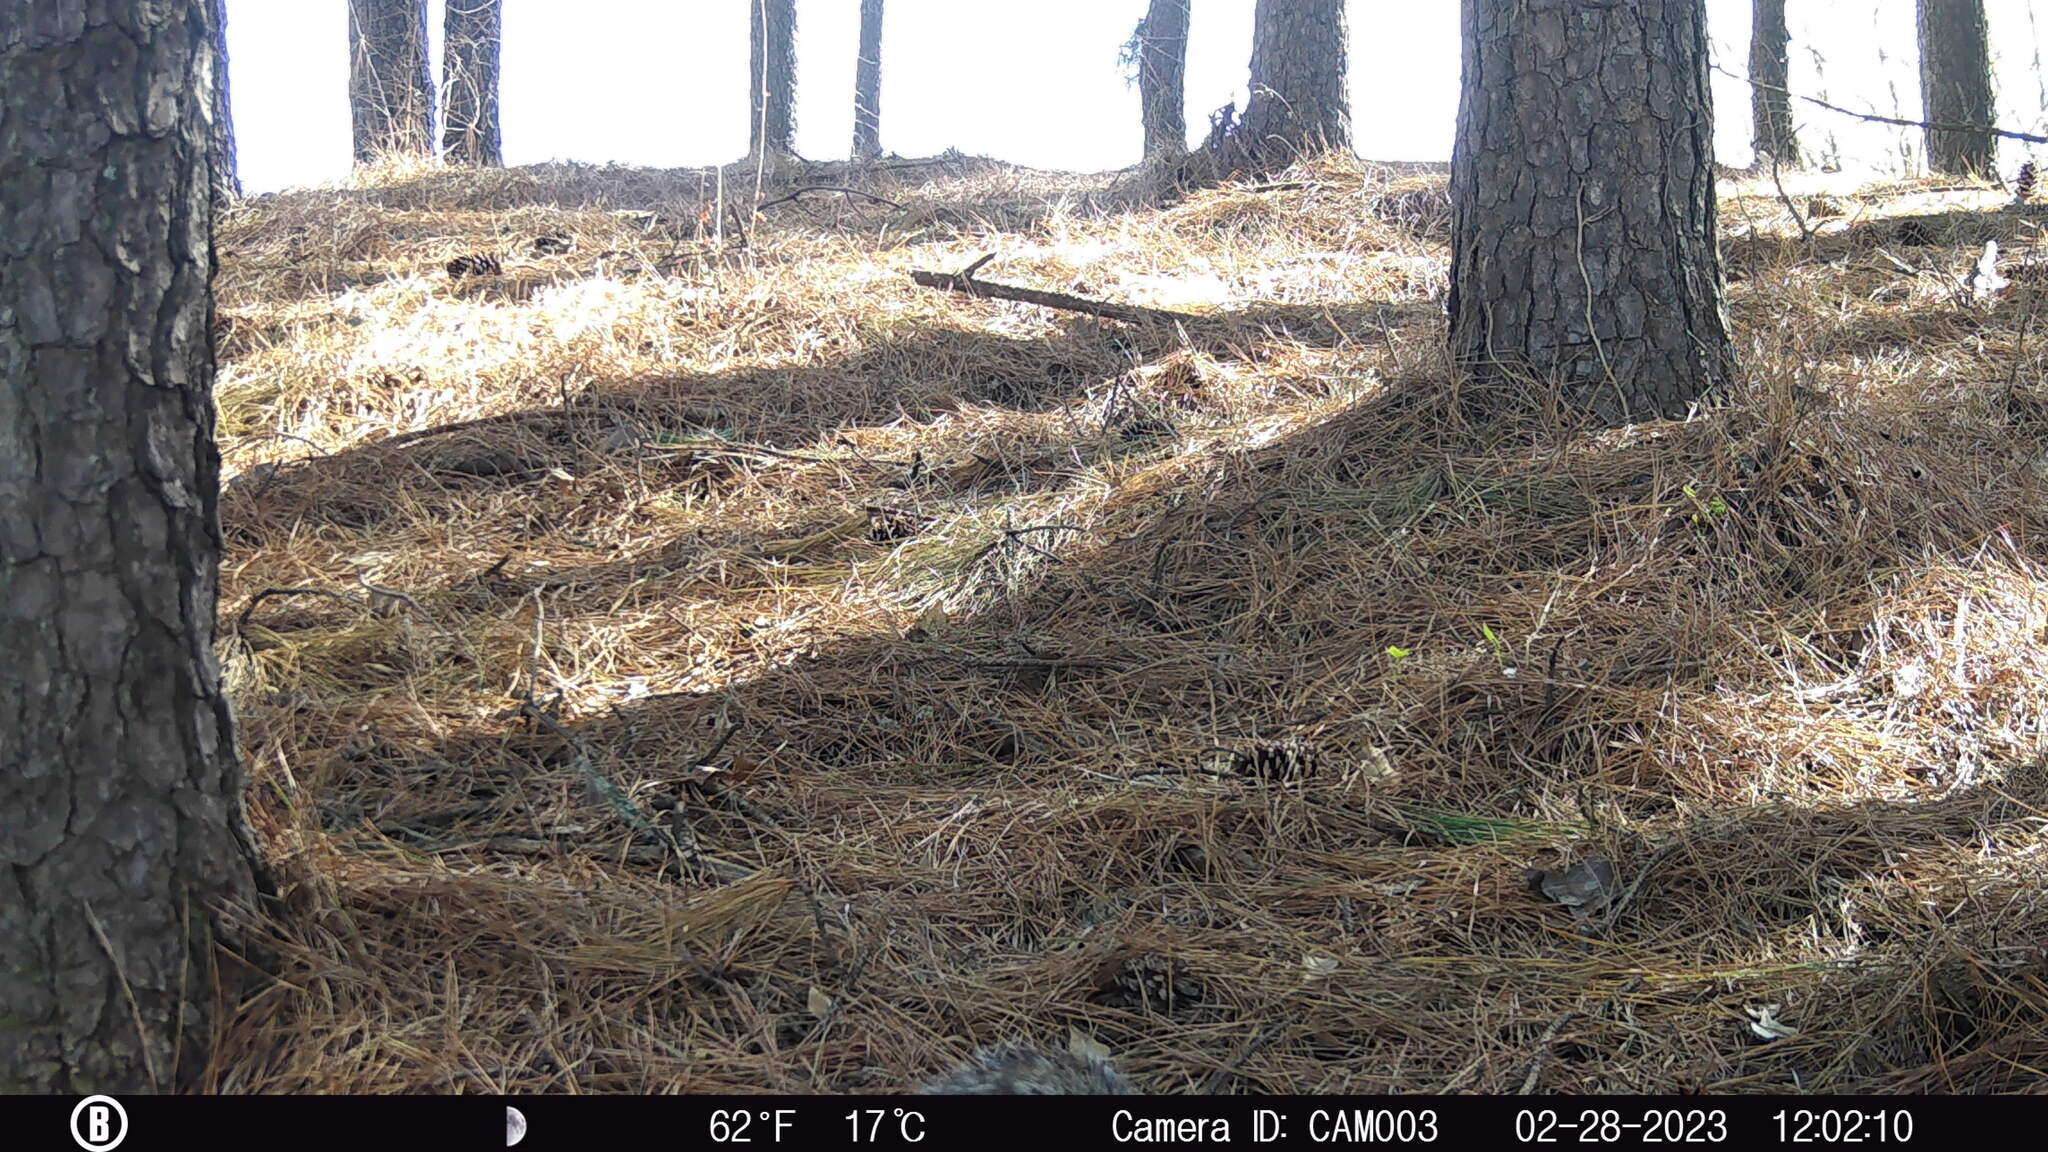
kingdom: Animalia
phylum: Chordata
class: Mammalia
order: Rodentia
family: Sciuridae
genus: Sciurus
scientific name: Sciurus carolinensis
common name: Eastern gray squirrel
